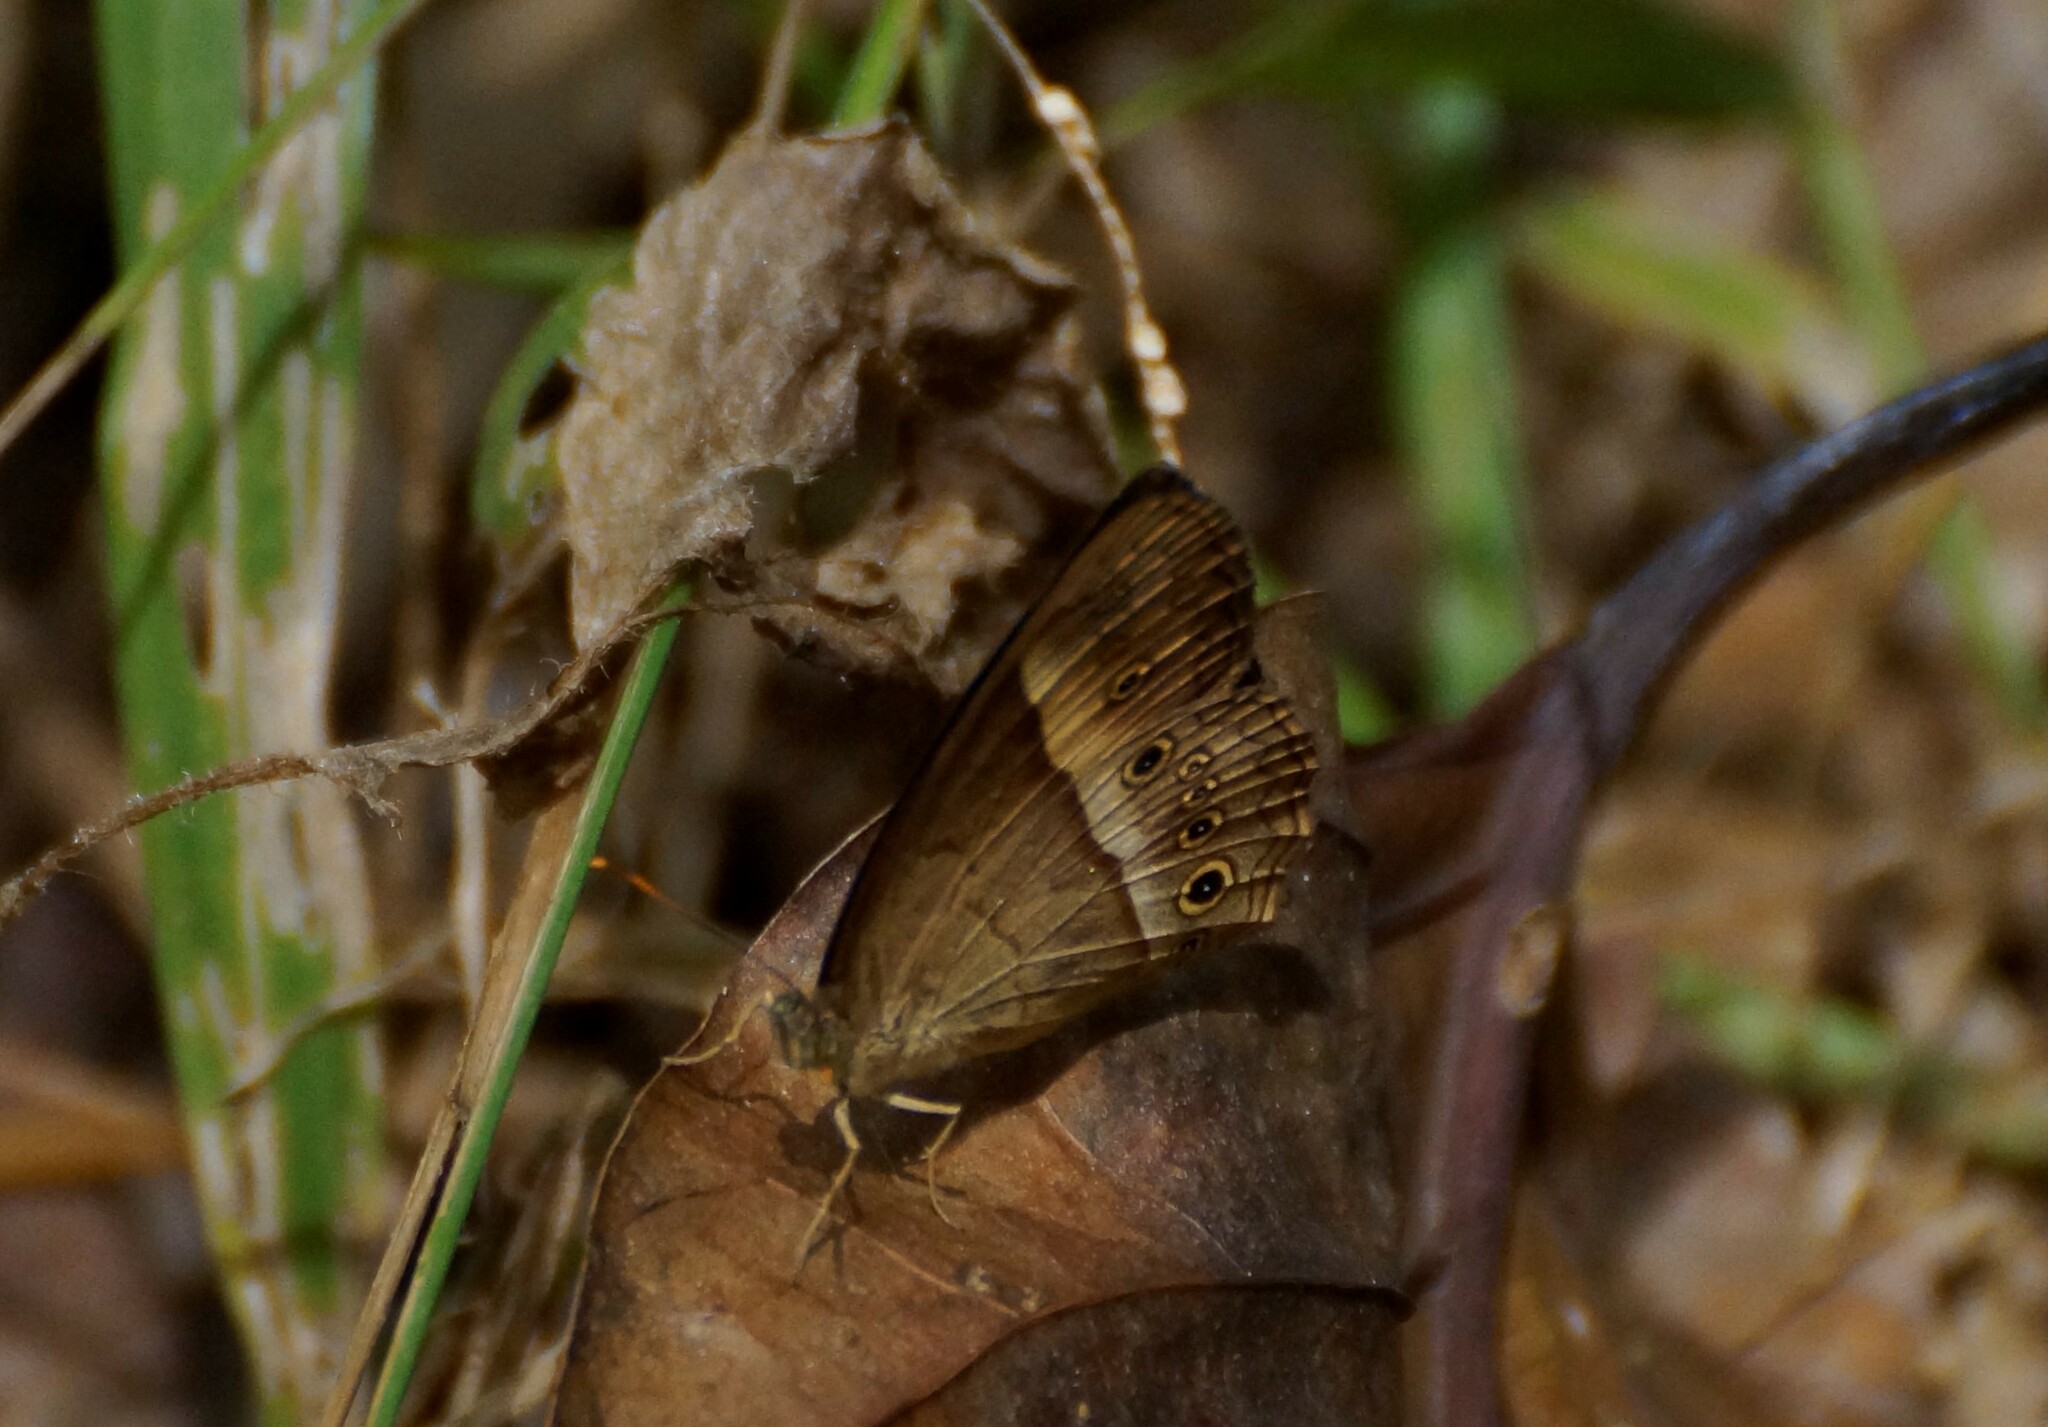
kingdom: Animalia
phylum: Arthropoda
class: Insecta
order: Lepidoptera
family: Nymphalidae
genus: Mycalesis
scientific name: Mycalesis terminus
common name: Orange bushbrown
